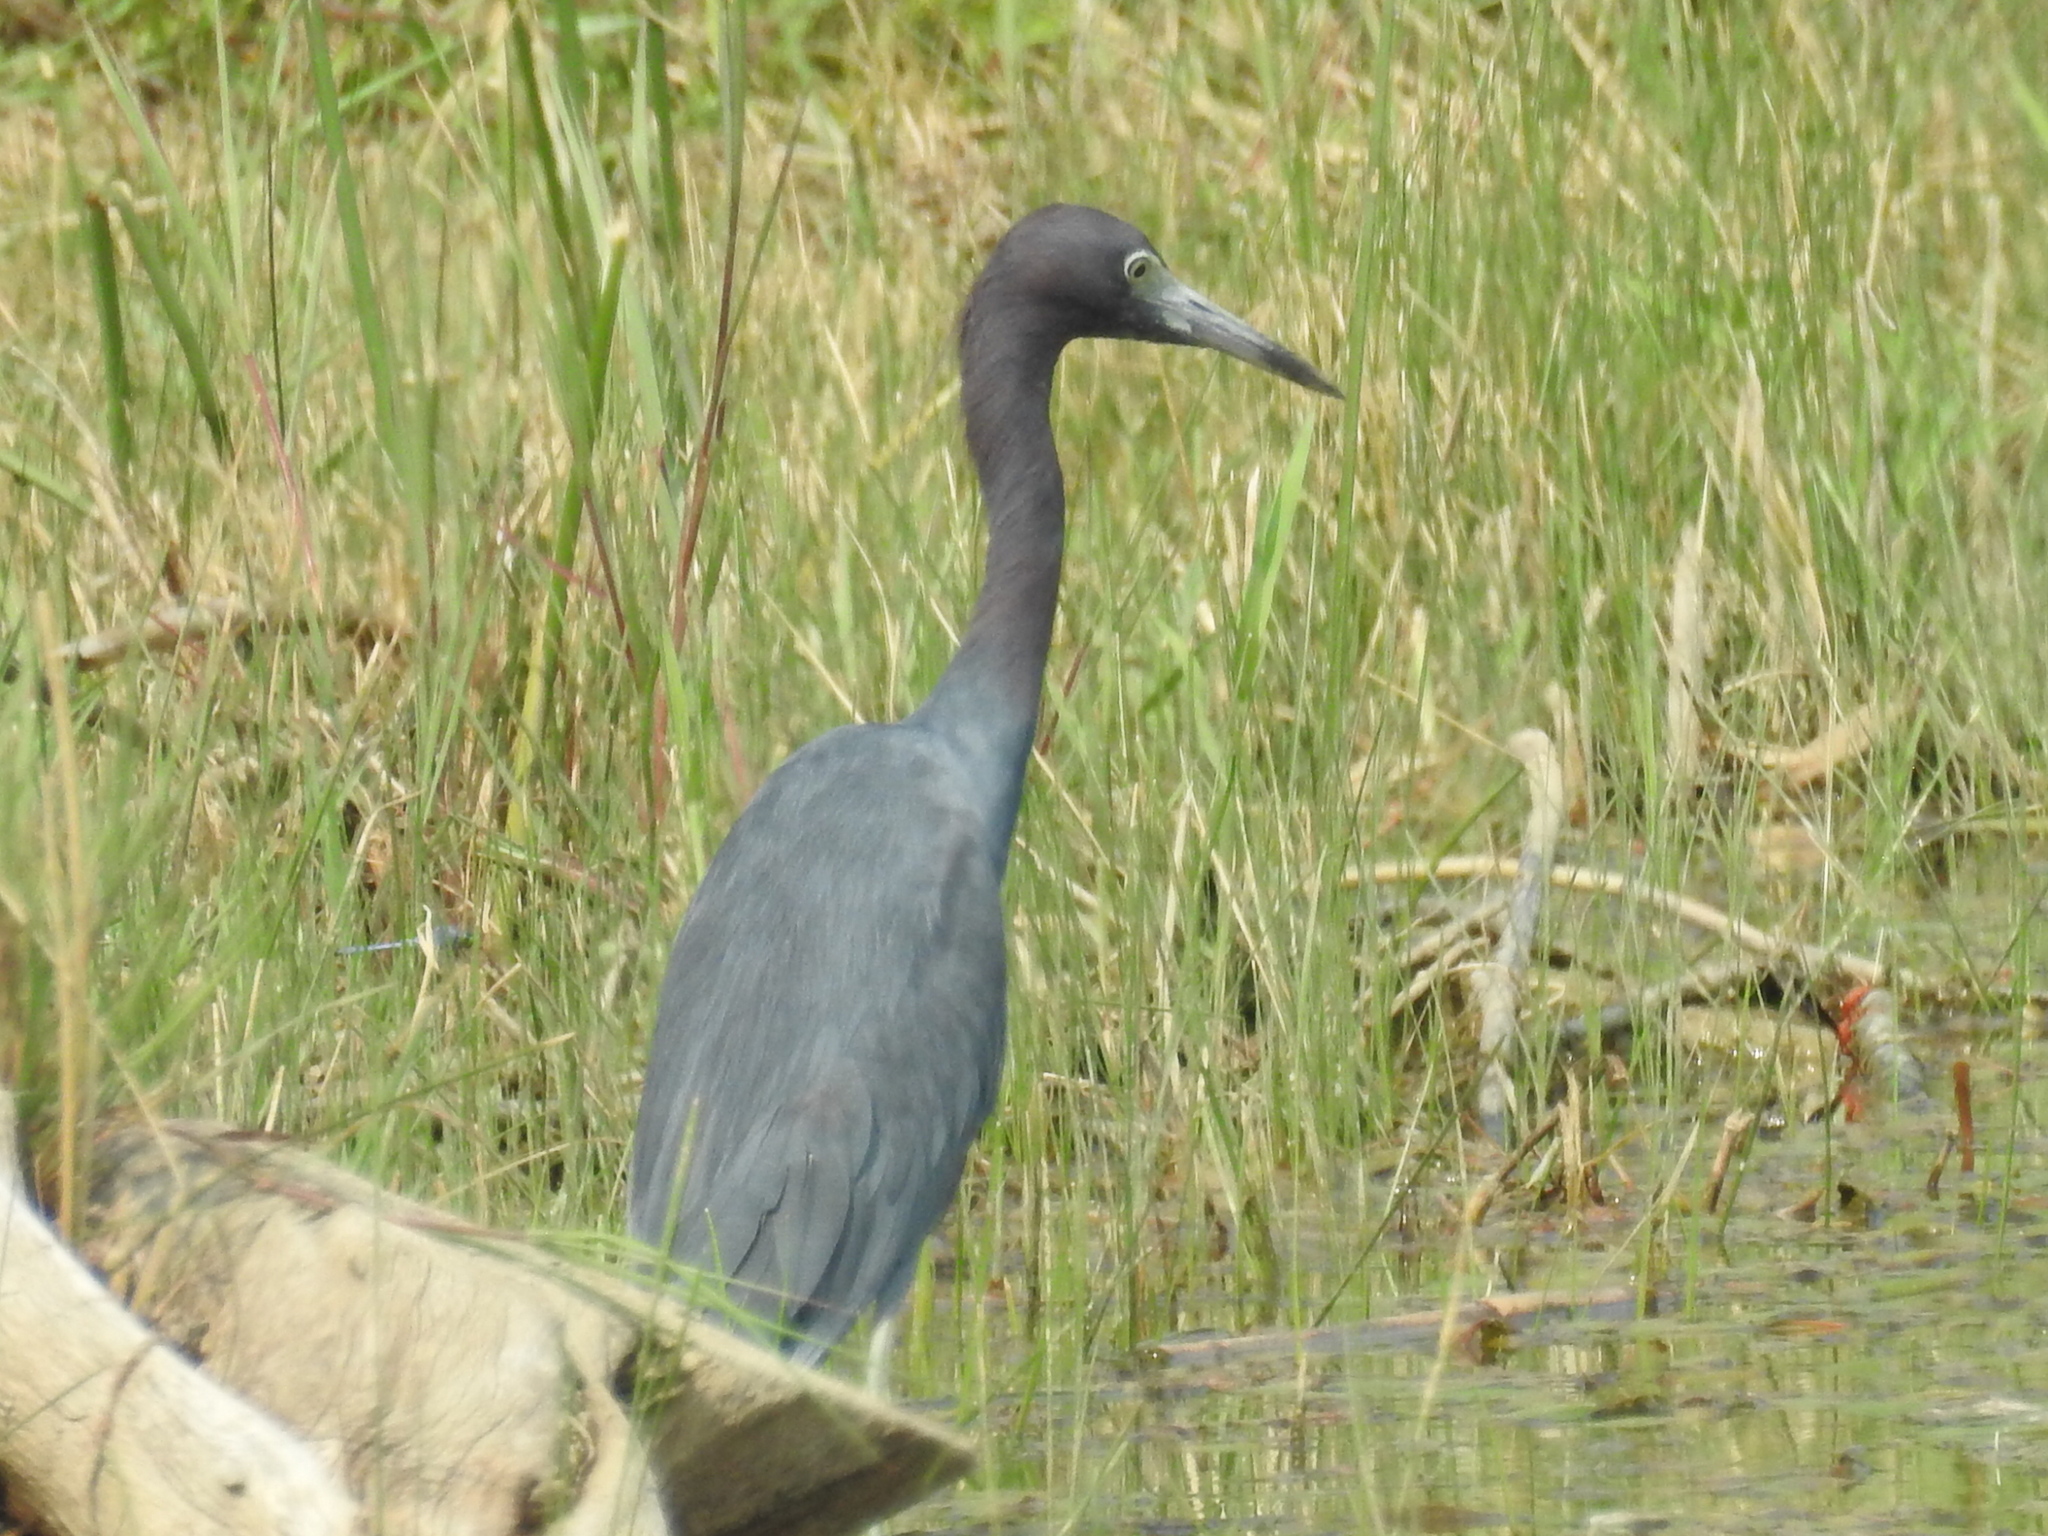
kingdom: Animalia
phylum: Chordata
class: Aves
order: Pelecaniformes
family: Ardeidae
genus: Egretta
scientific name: Egretta caerulea
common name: Little blue heron
